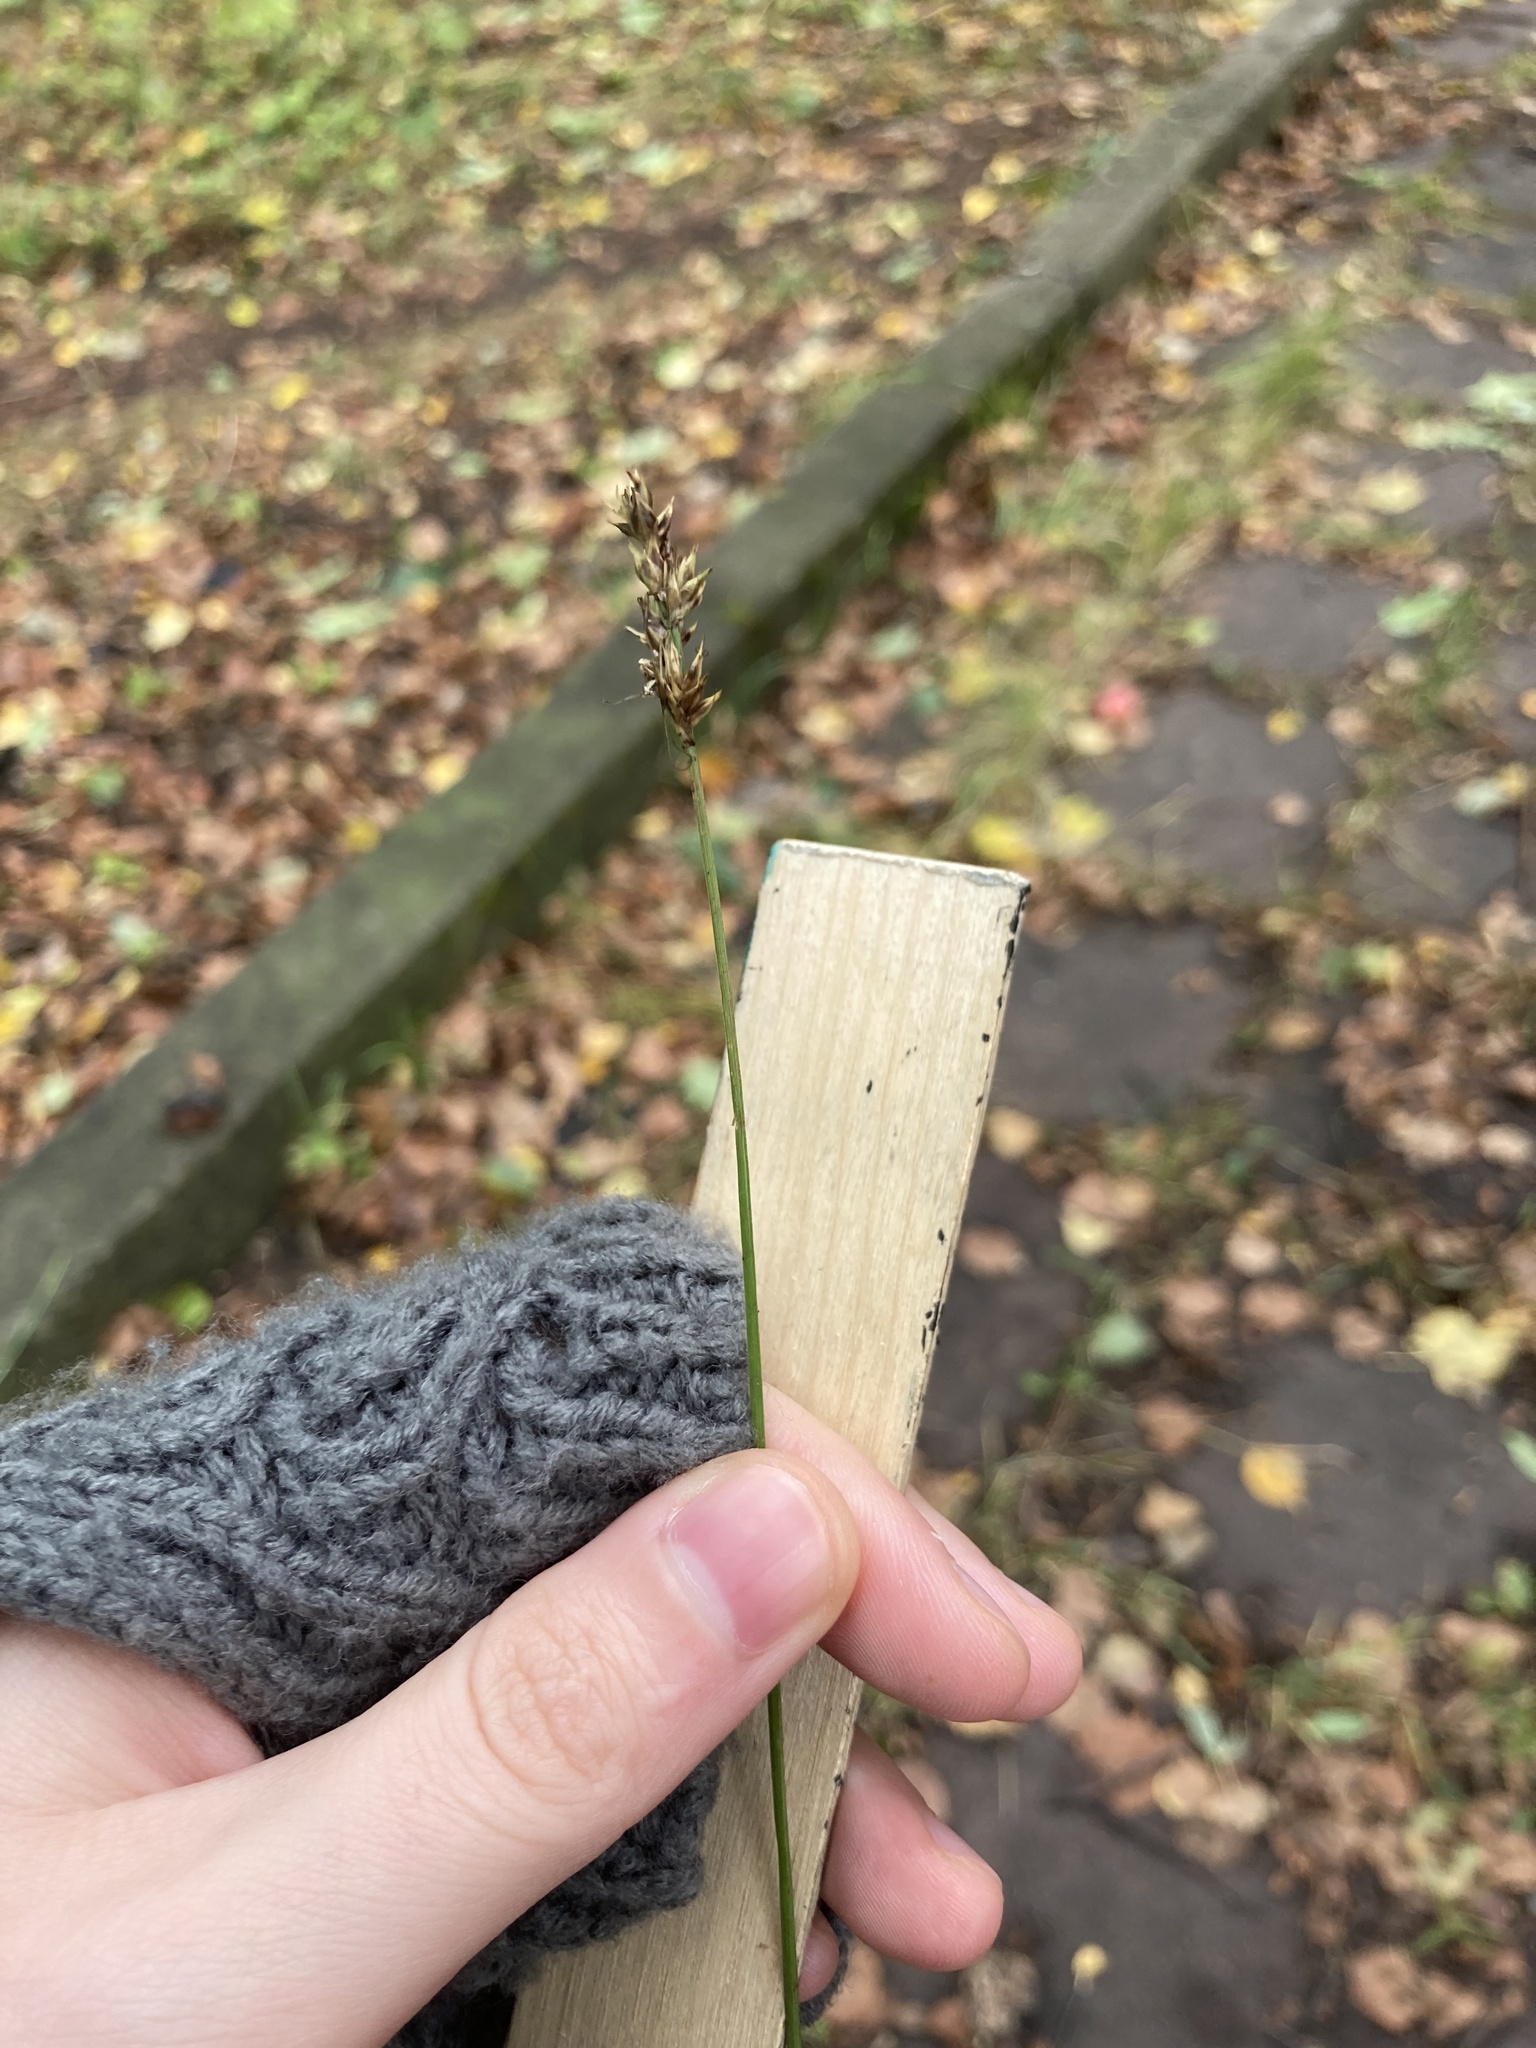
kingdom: Plantae
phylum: Tracheophyta
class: Liliopsida
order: Poales
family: Cyperaceae
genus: Carex
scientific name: Carex spicata
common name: Spiked sedge
